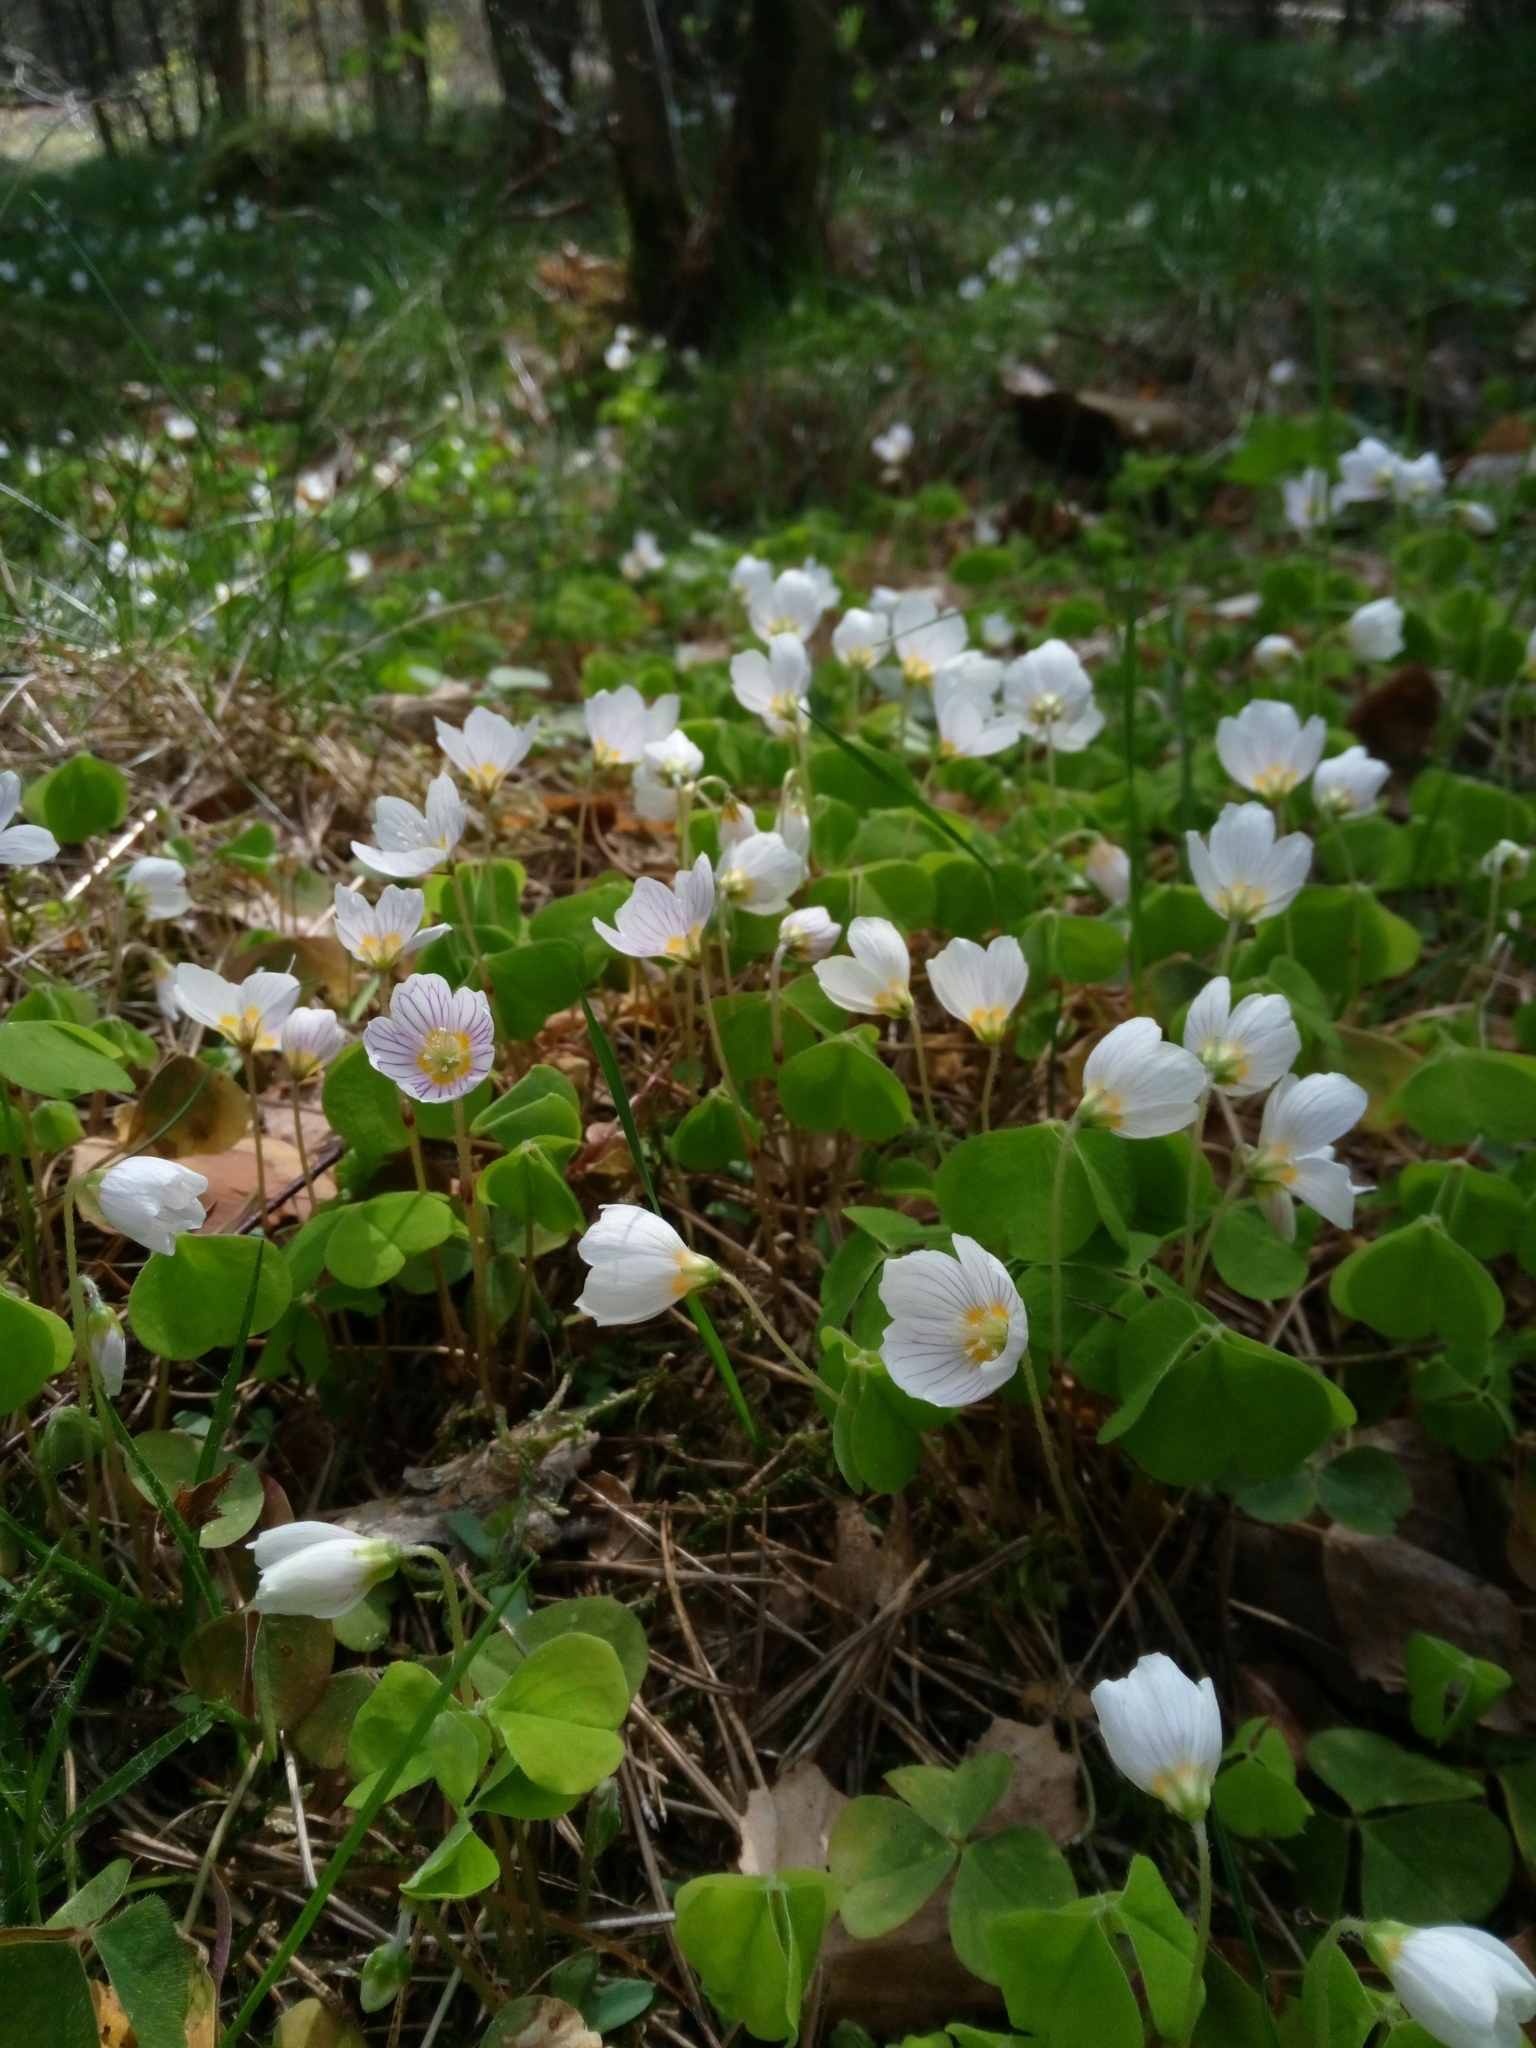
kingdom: Plantae
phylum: Tracheophyta
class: Magnoliopsida
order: Oxalidales
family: Oxalidaceae
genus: Oxalis
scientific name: Oxalis acetosella
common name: Wood-sorrel
